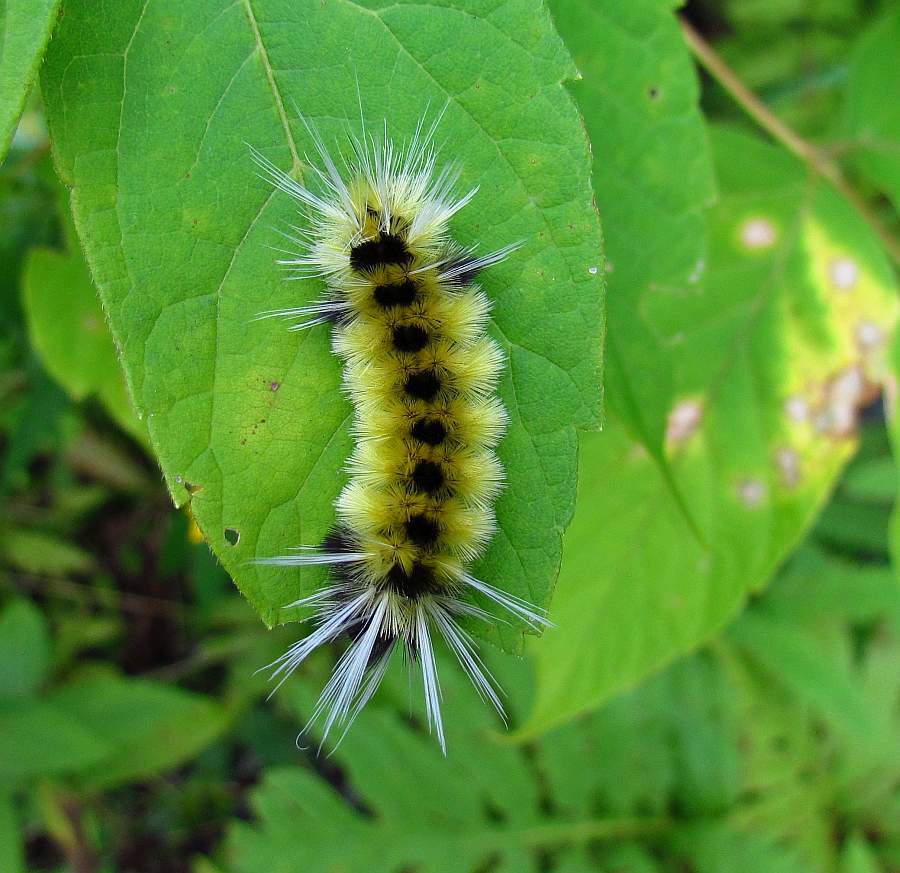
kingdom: Animalia
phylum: Arthropoda
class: Insecta
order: Lepidoptera
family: Erebidae
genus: Lophocampa
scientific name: Lophocampa maculata
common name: Spotted tussock moth
